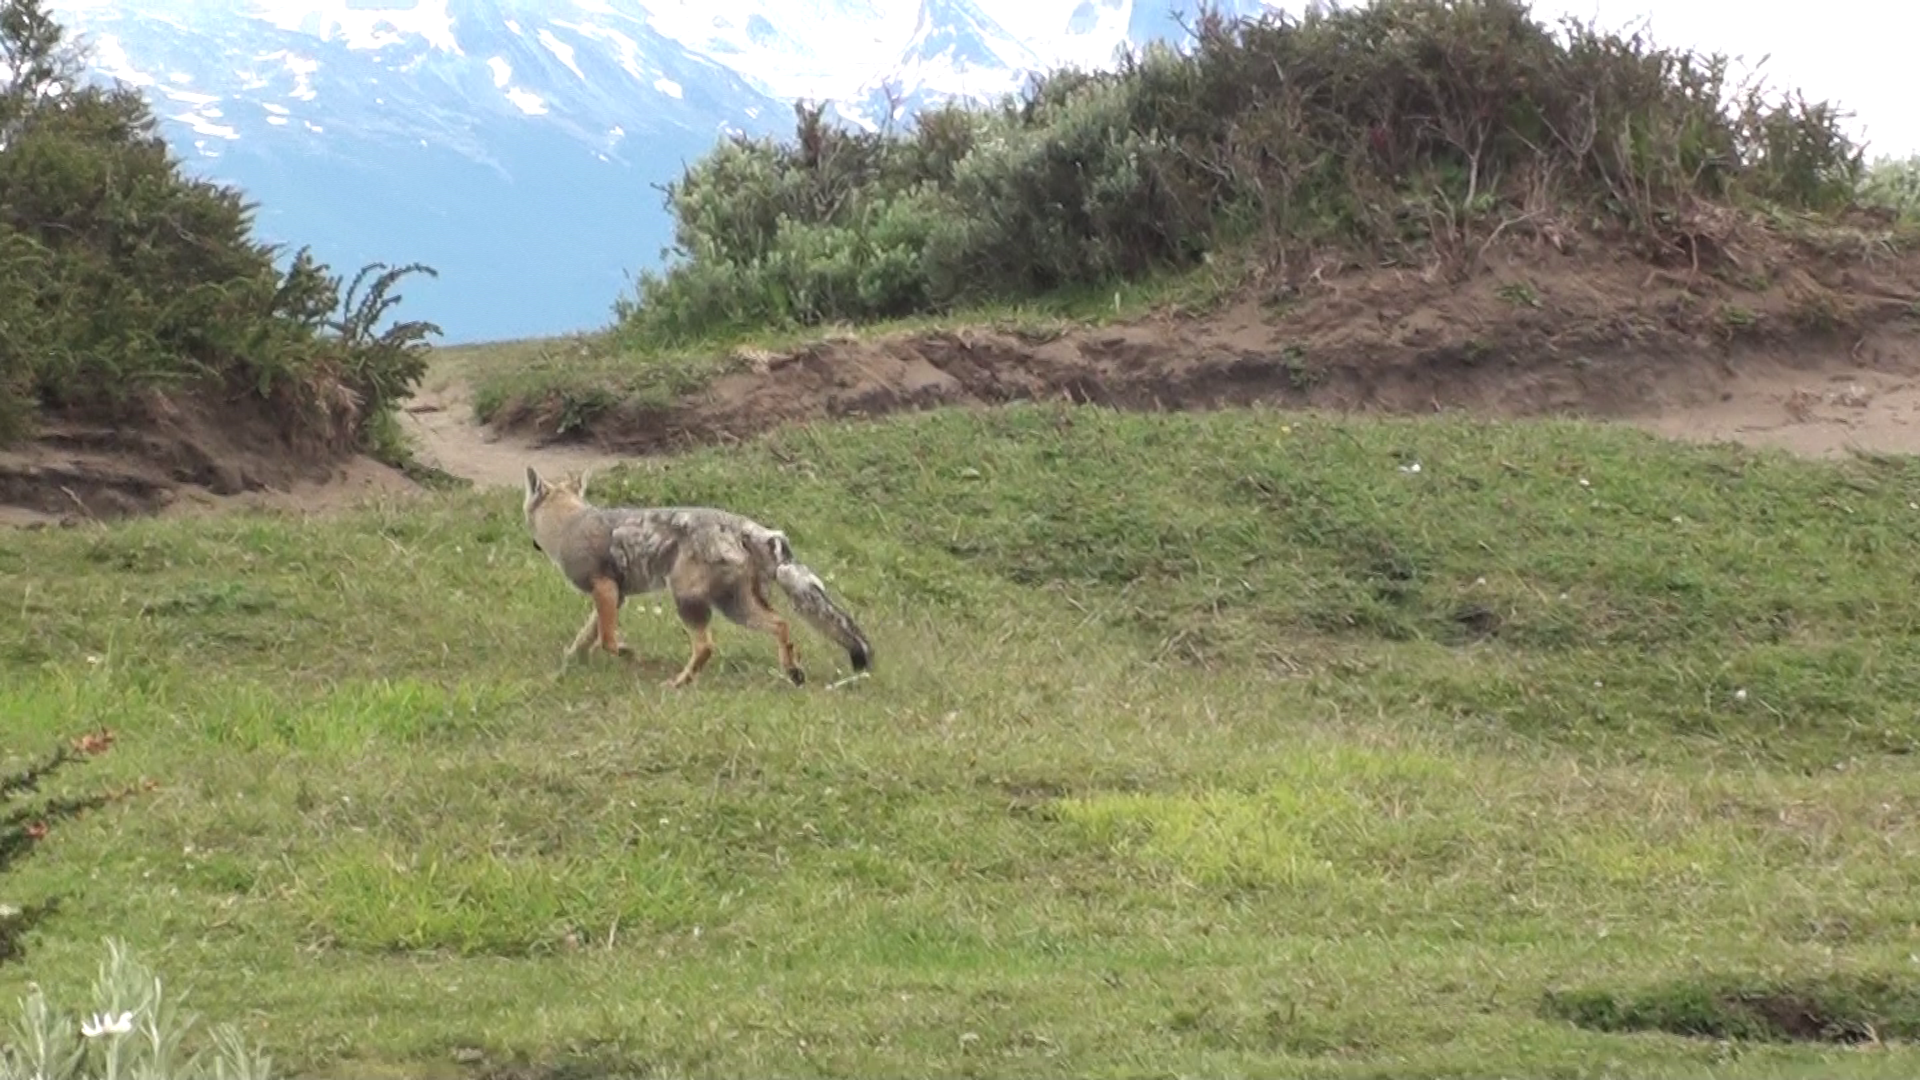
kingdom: Animalia
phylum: Chordata
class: Mammalia
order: Carnivora
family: Canidae
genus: Lycalopex
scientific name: Lycalopex gymnocercus
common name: Pampas fox
